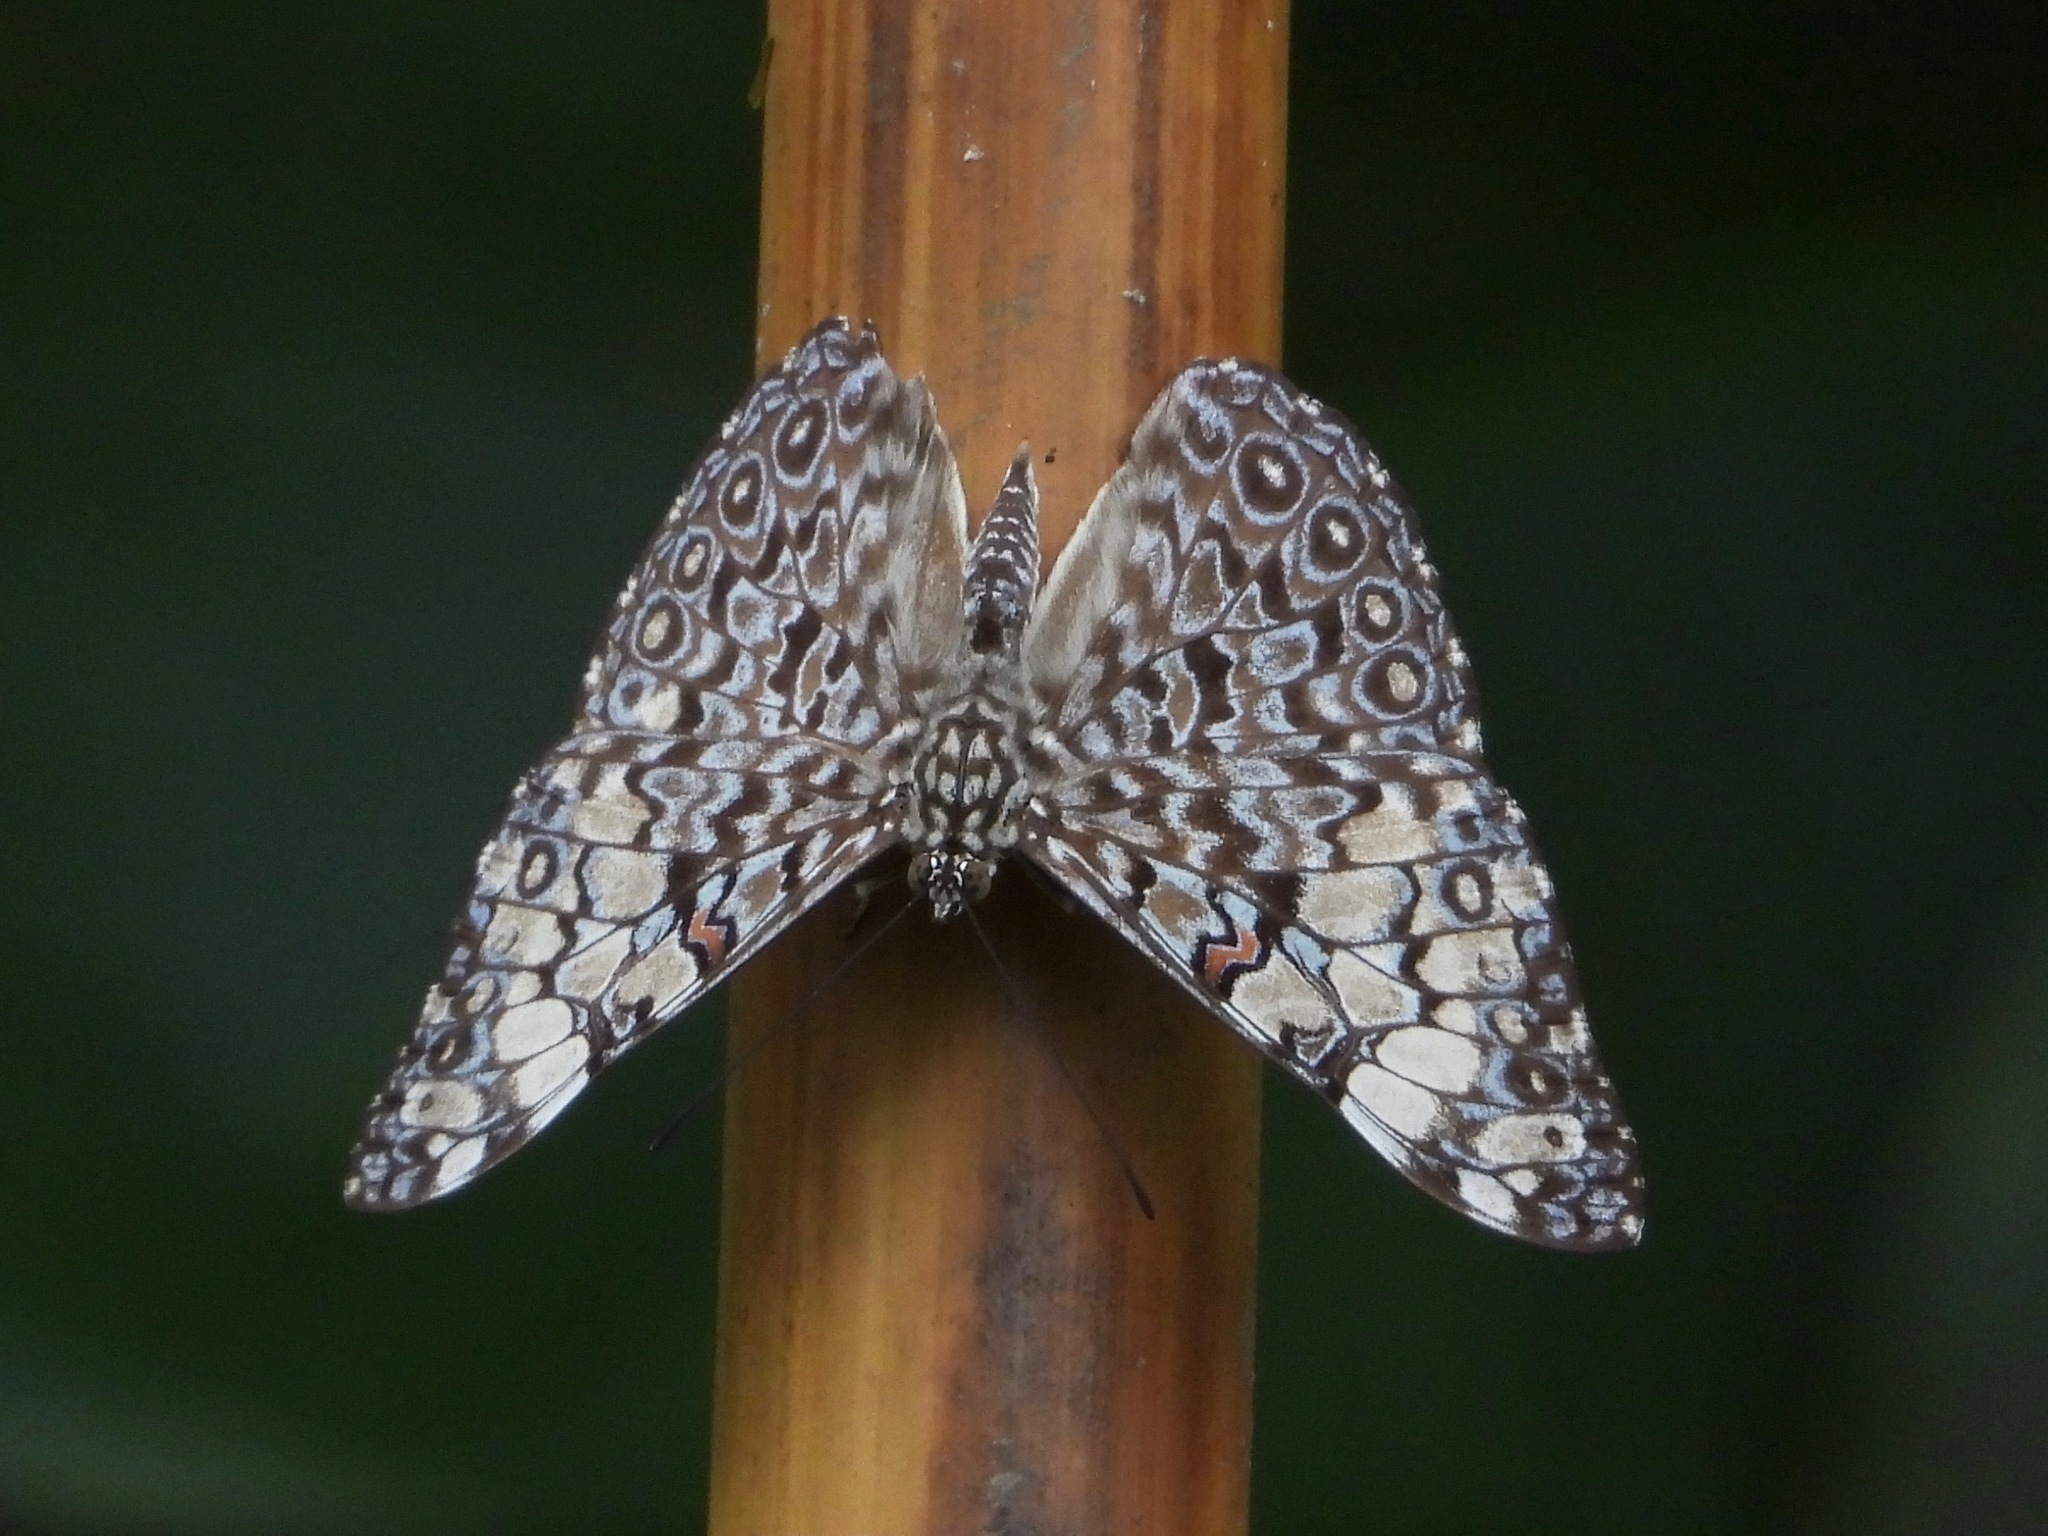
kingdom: Animalia
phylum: Arthropoda
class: Insecta
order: Lepidoptera
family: Nymphalidae
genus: Hamadryas
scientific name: Hamadryas feronia
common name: Variable cracker
